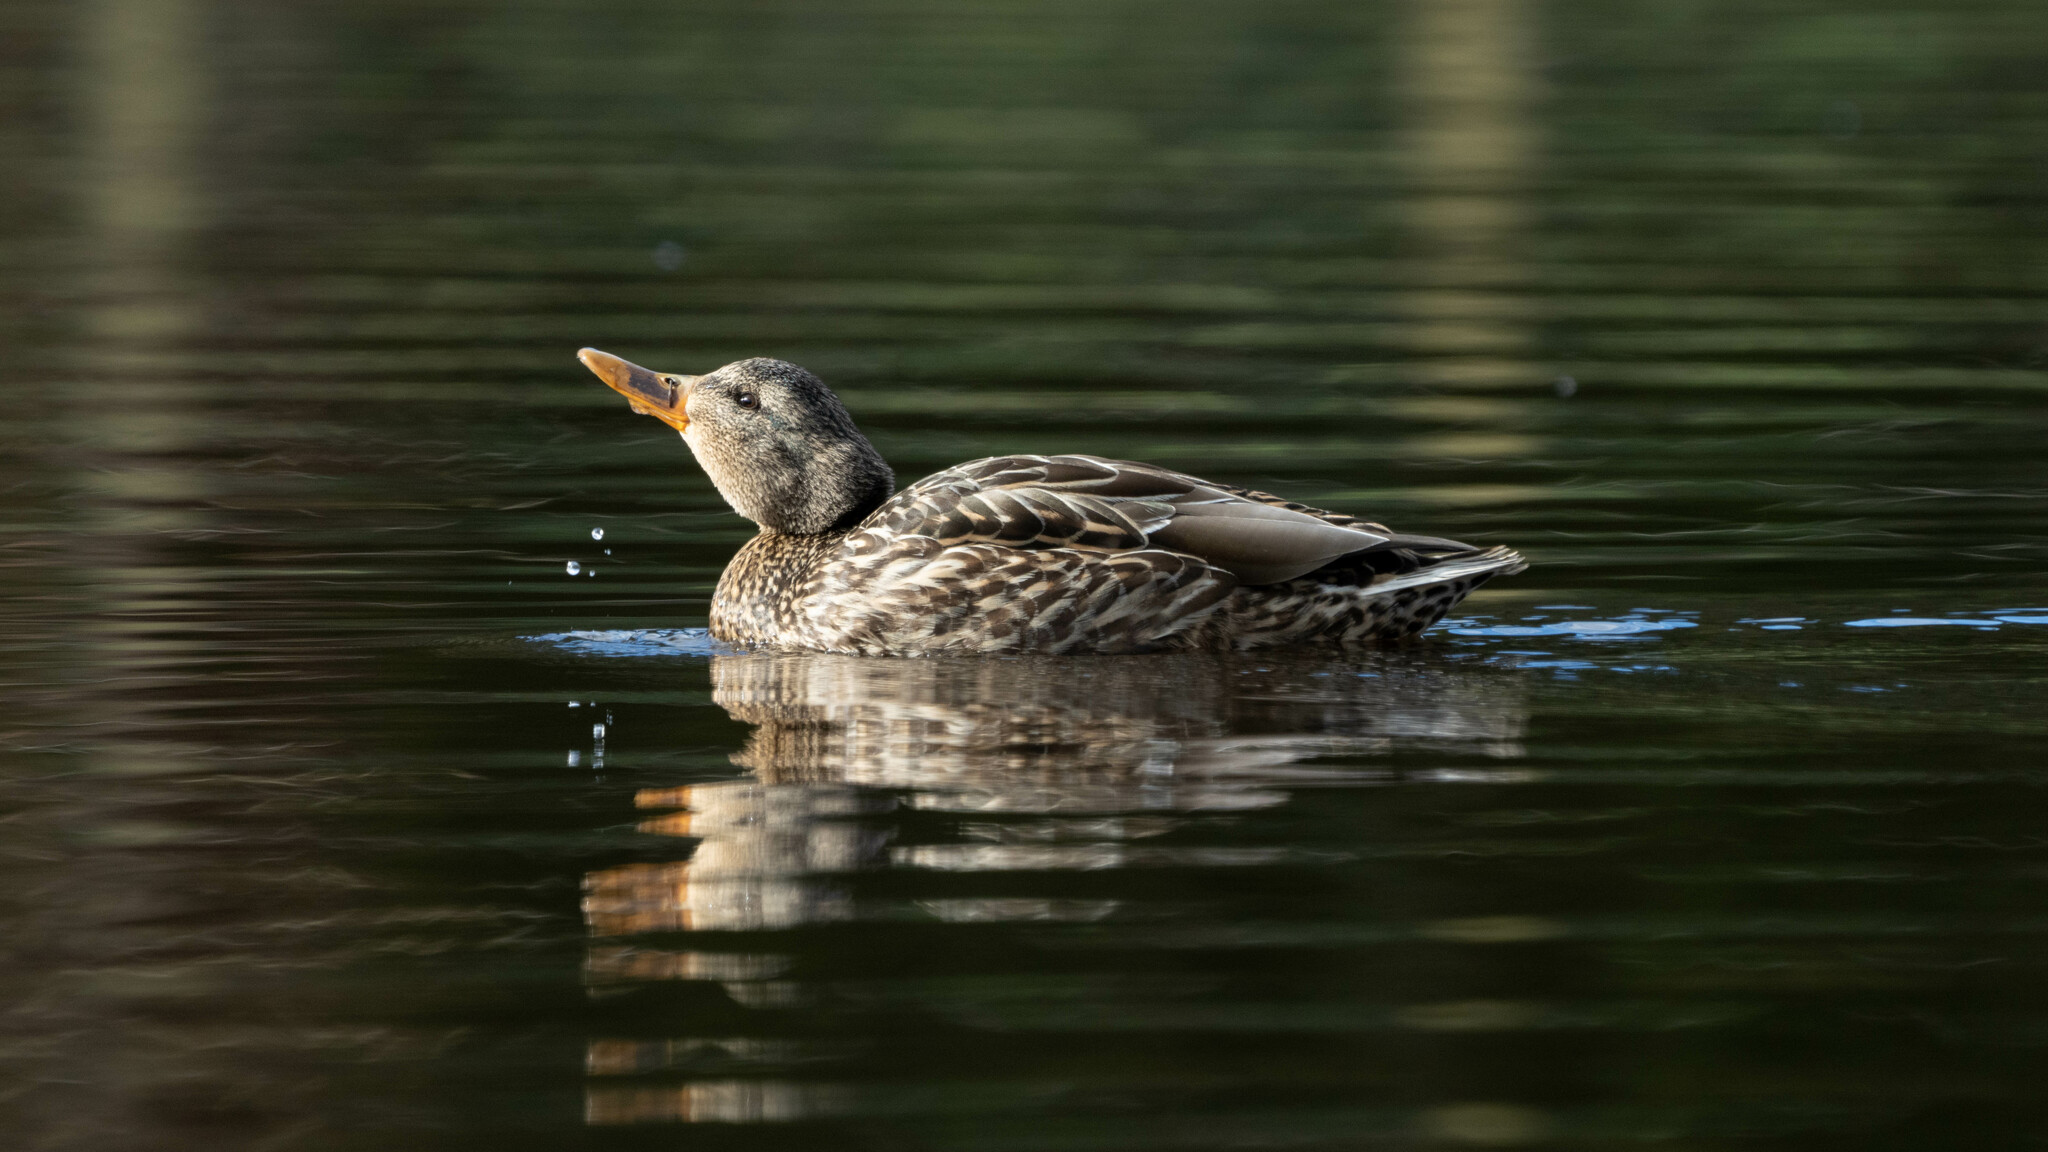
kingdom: Animalia
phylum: Chordata
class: Aves
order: Anseriformes
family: Anatidae
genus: Anas
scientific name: Anas platyrhynchos
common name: Mallard
